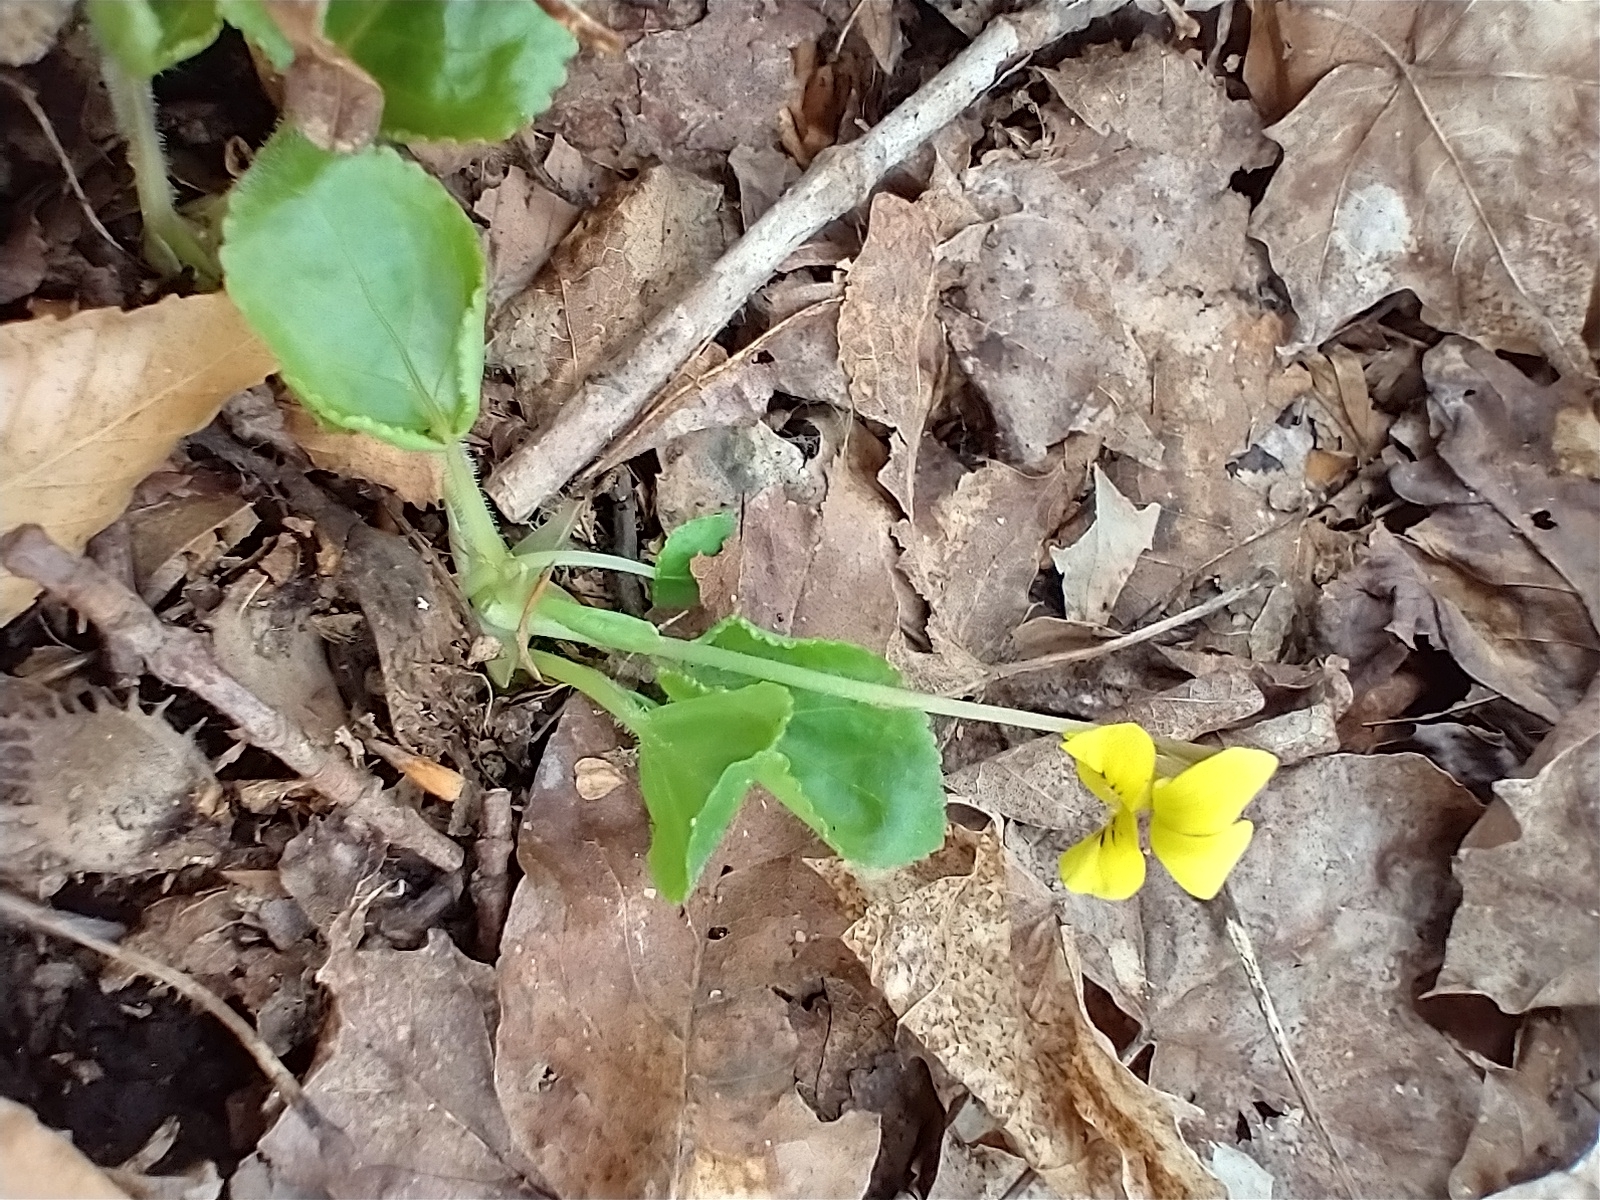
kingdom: Plantae
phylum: Tracheophyta
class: Magnoliopsida
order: Malpighiales
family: Violaceae
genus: Viola
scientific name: Viola rotundifolia
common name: Early yellow violet
